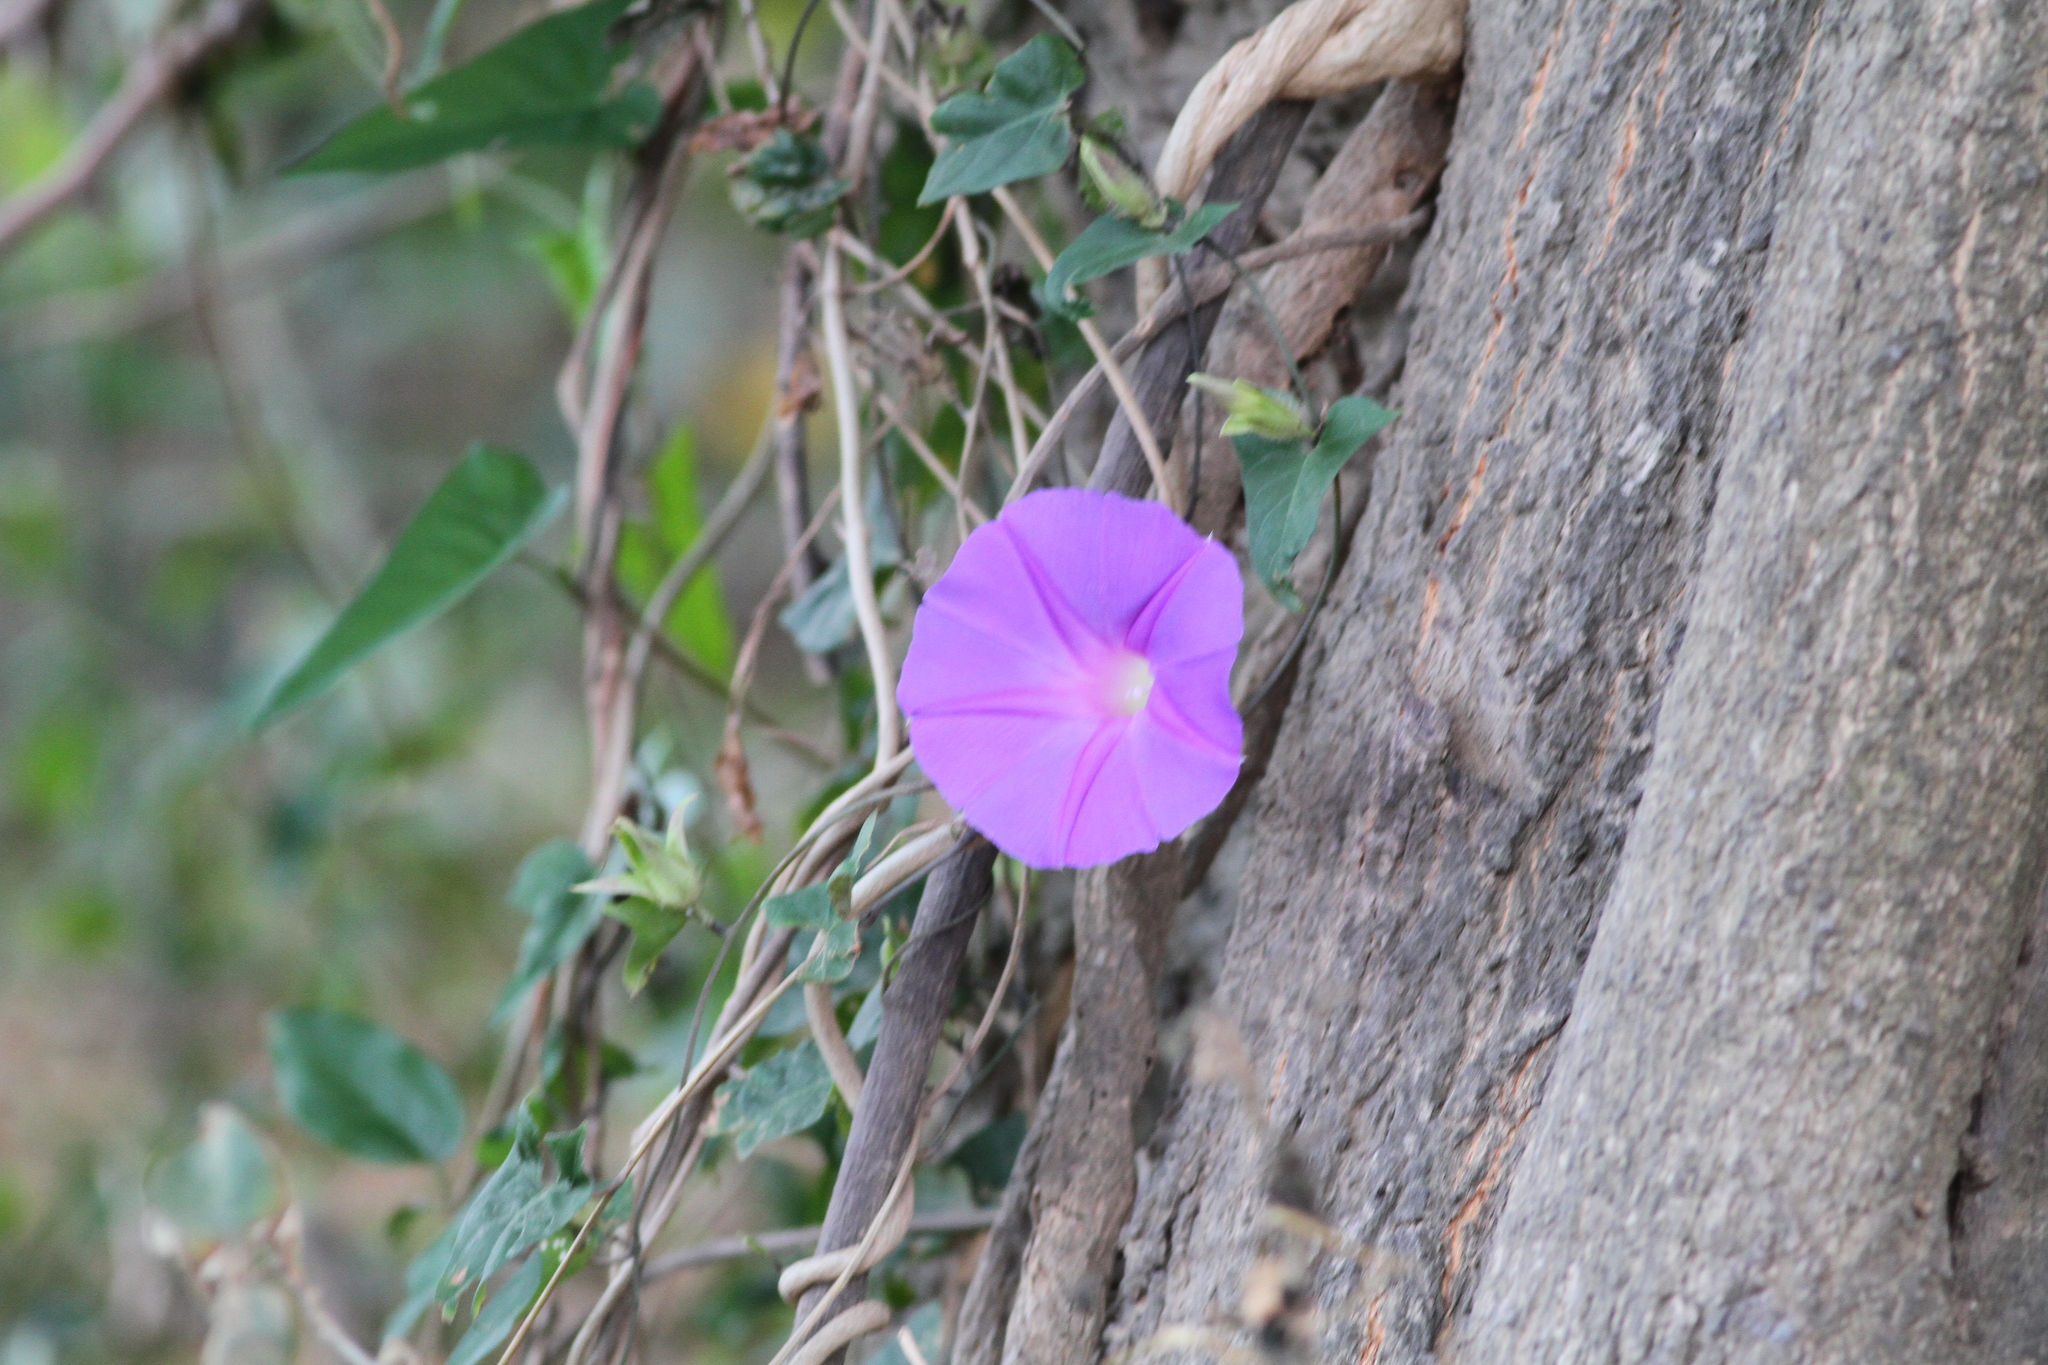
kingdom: Plantae
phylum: Tracheophyta
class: Magnoliopsida
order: Solanales
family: Convolvulaceae
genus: Ipomoea
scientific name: Ipomoea meyeri
